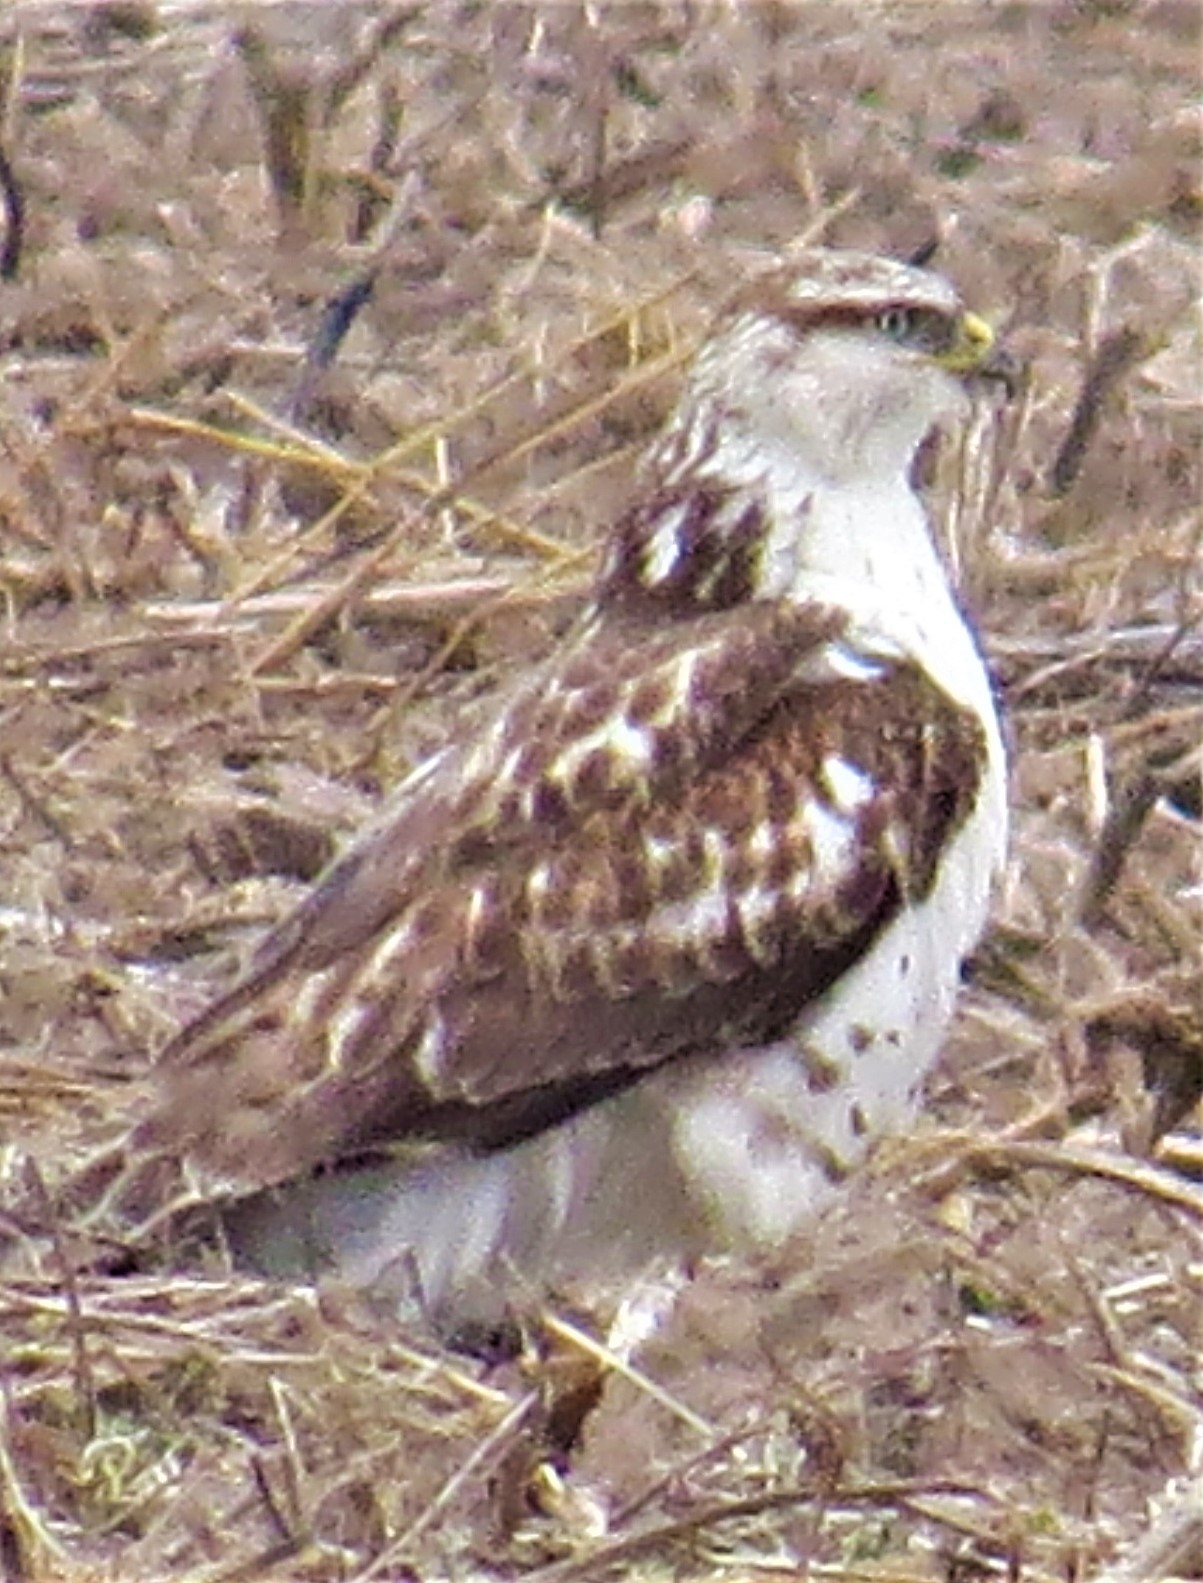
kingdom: Animalia
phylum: Chordata
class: Aves
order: Accipitriformes
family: Accipitridae
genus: Buteo
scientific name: Buteo regalis
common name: Ferruginous hawk
